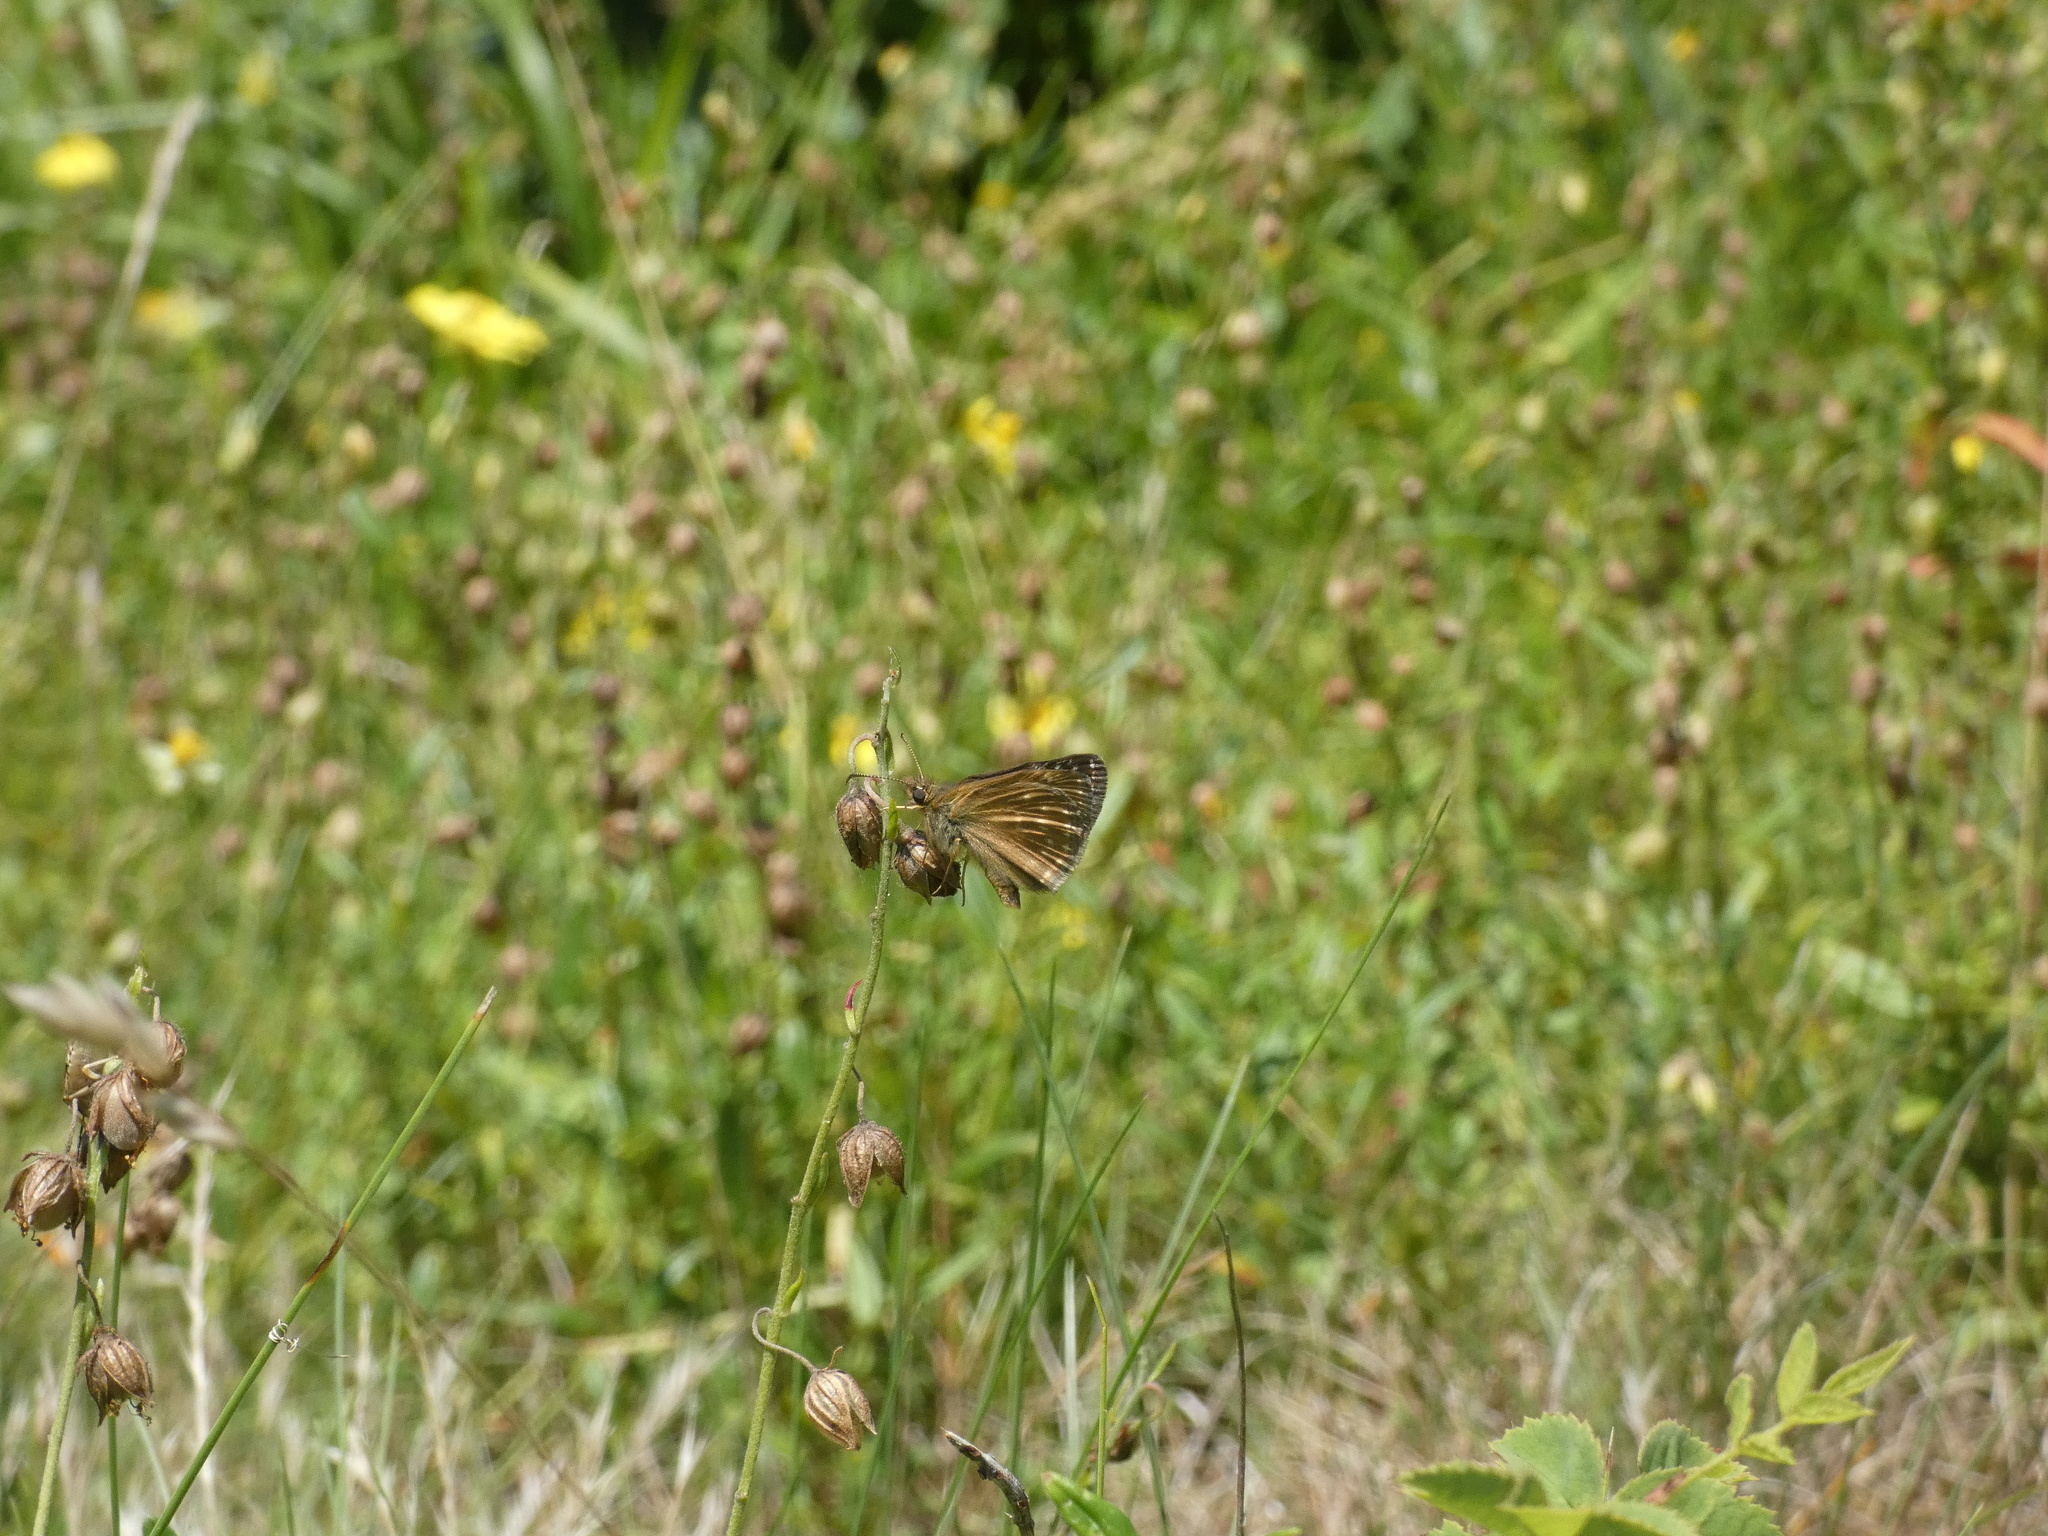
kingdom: Animalia
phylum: Arthropoda
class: Insecta
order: Lepidoptera
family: Hesperiidae
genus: Erynnis
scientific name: Erynnis tages
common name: Dingy skipper
